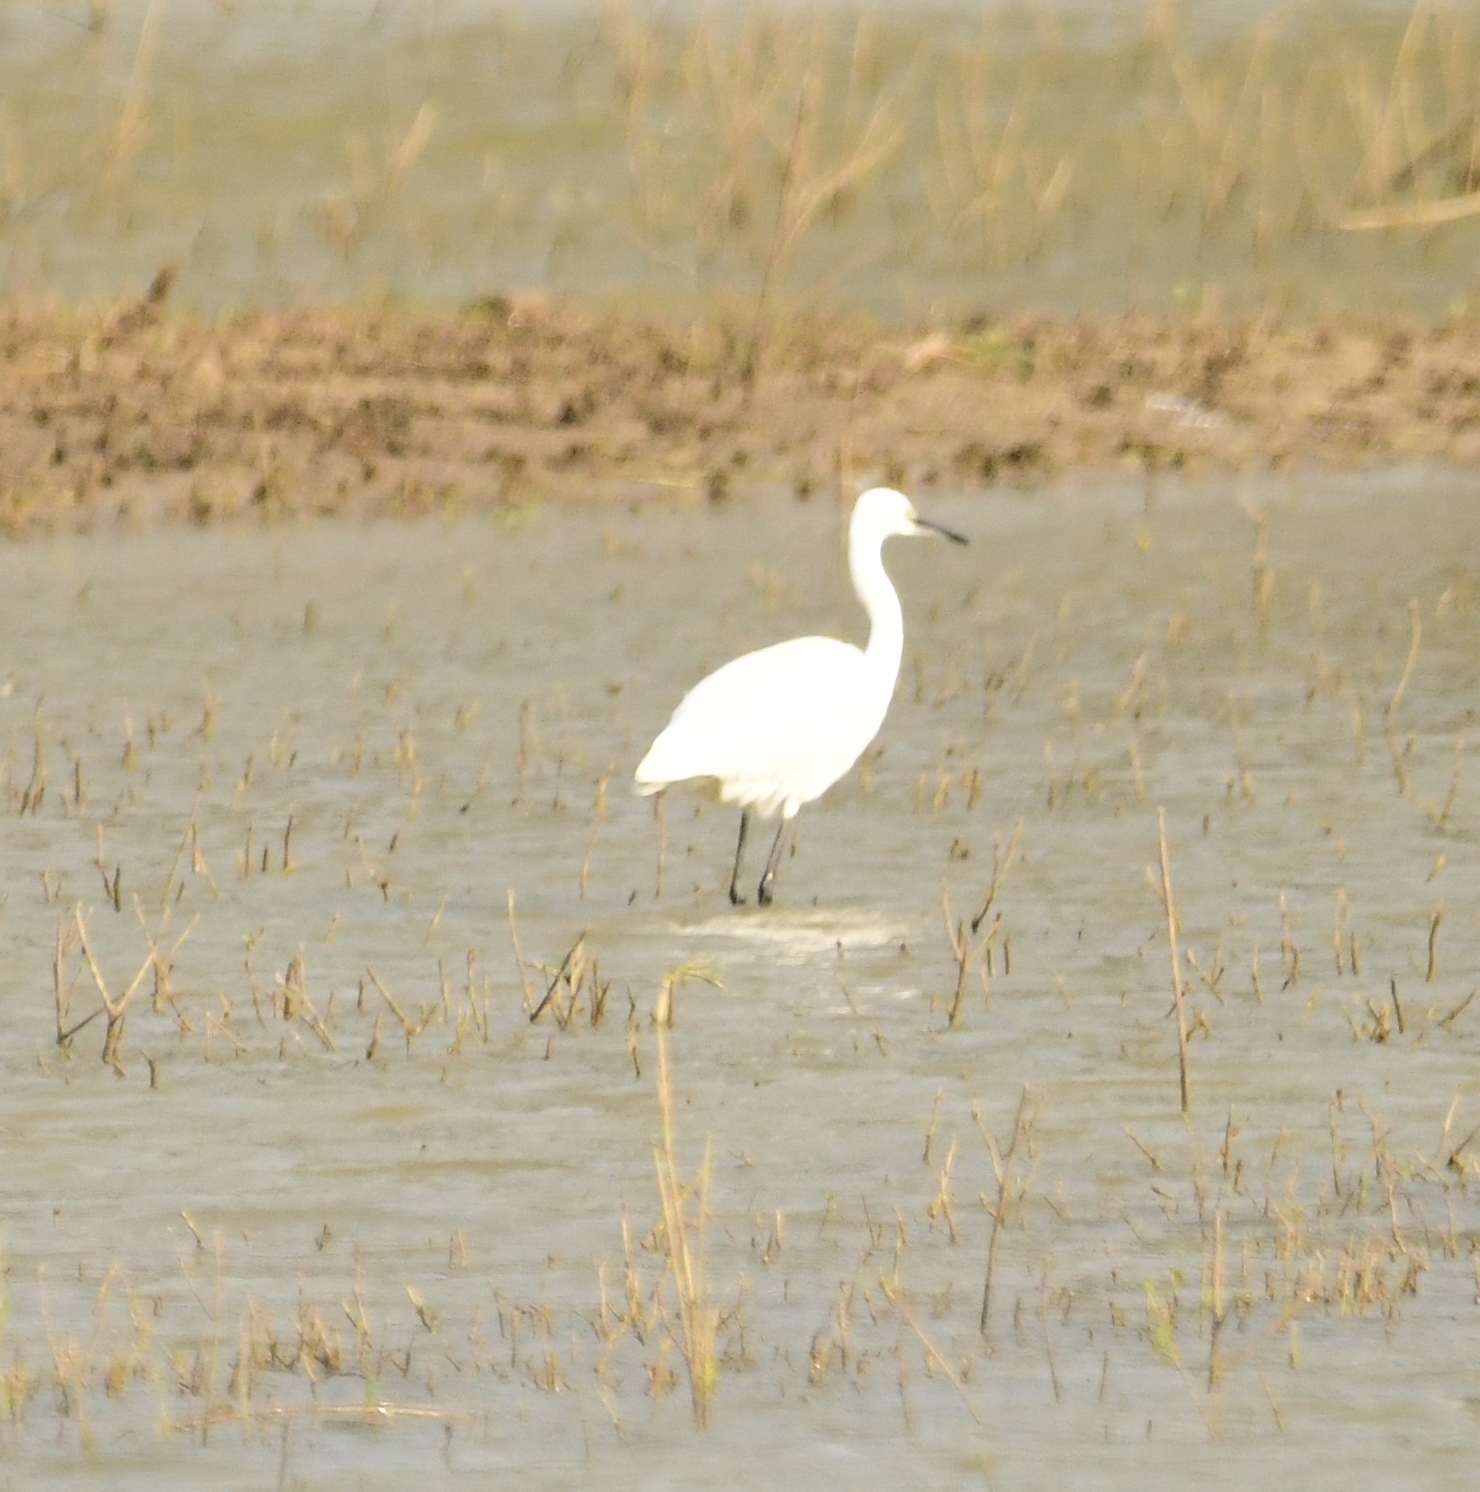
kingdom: Animalia
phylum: Chordata
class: Aves
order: Pelecaniformes
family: Ardeidae
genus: Egretta
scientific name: Egretta garzetta
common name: Little egret
